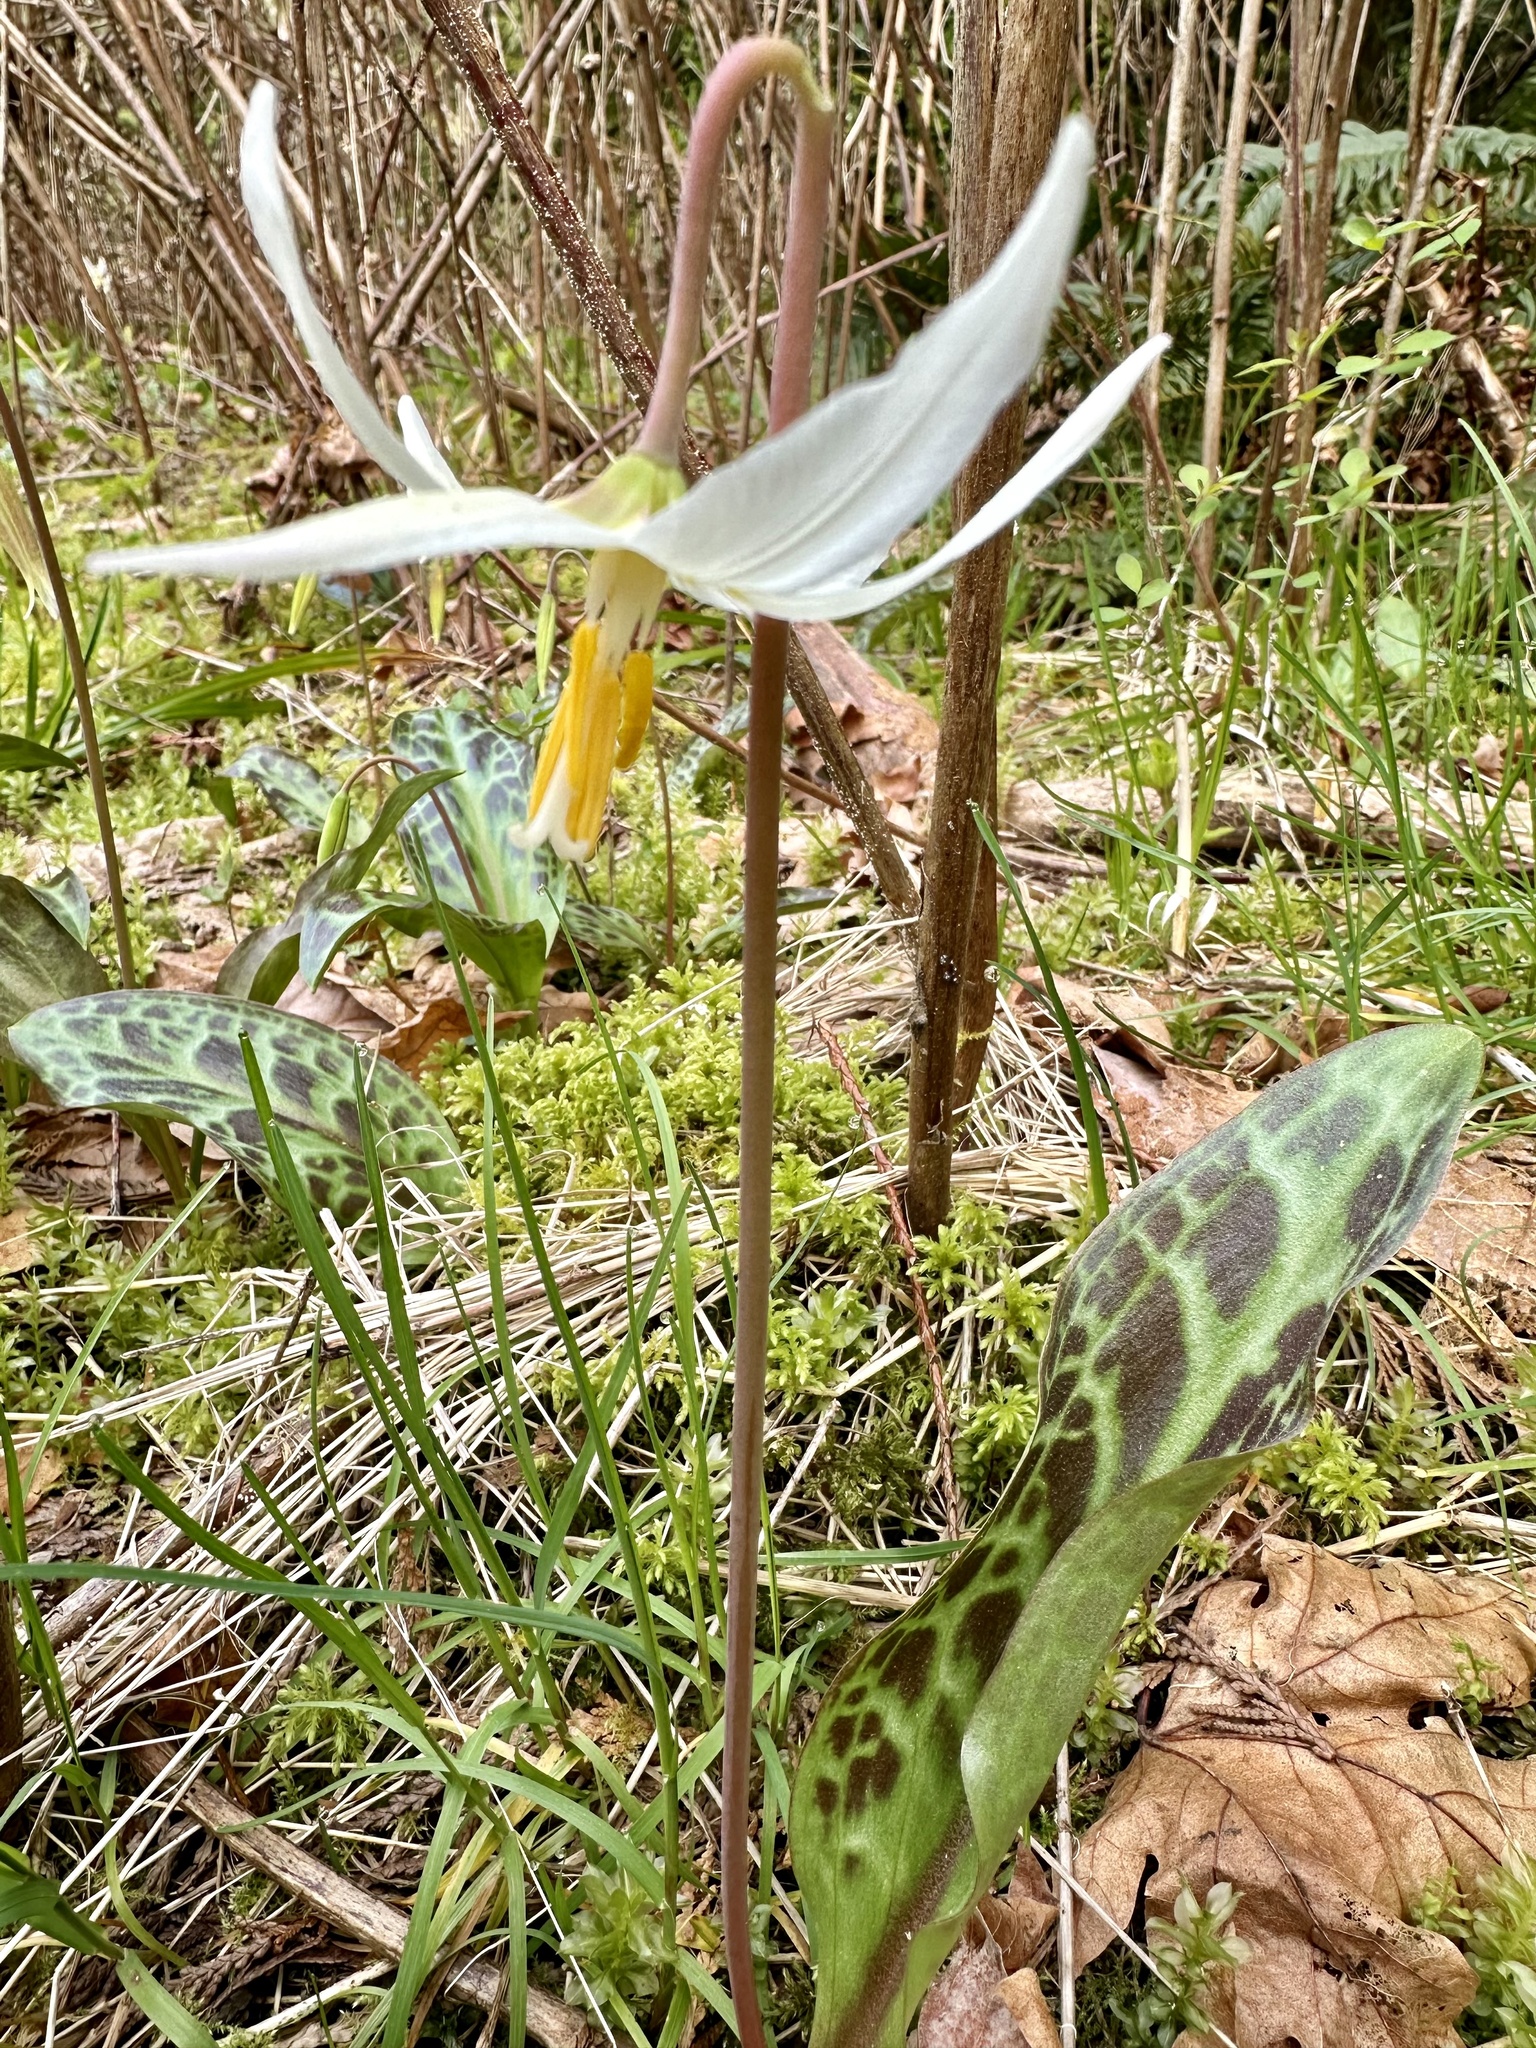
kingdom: Plantae
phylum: Tracheophyta
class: Liliopsida
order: Liliales
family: Liliaceae
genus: Erythronium
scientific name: Erythronium oregonum
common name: Giant adder's-tongue
